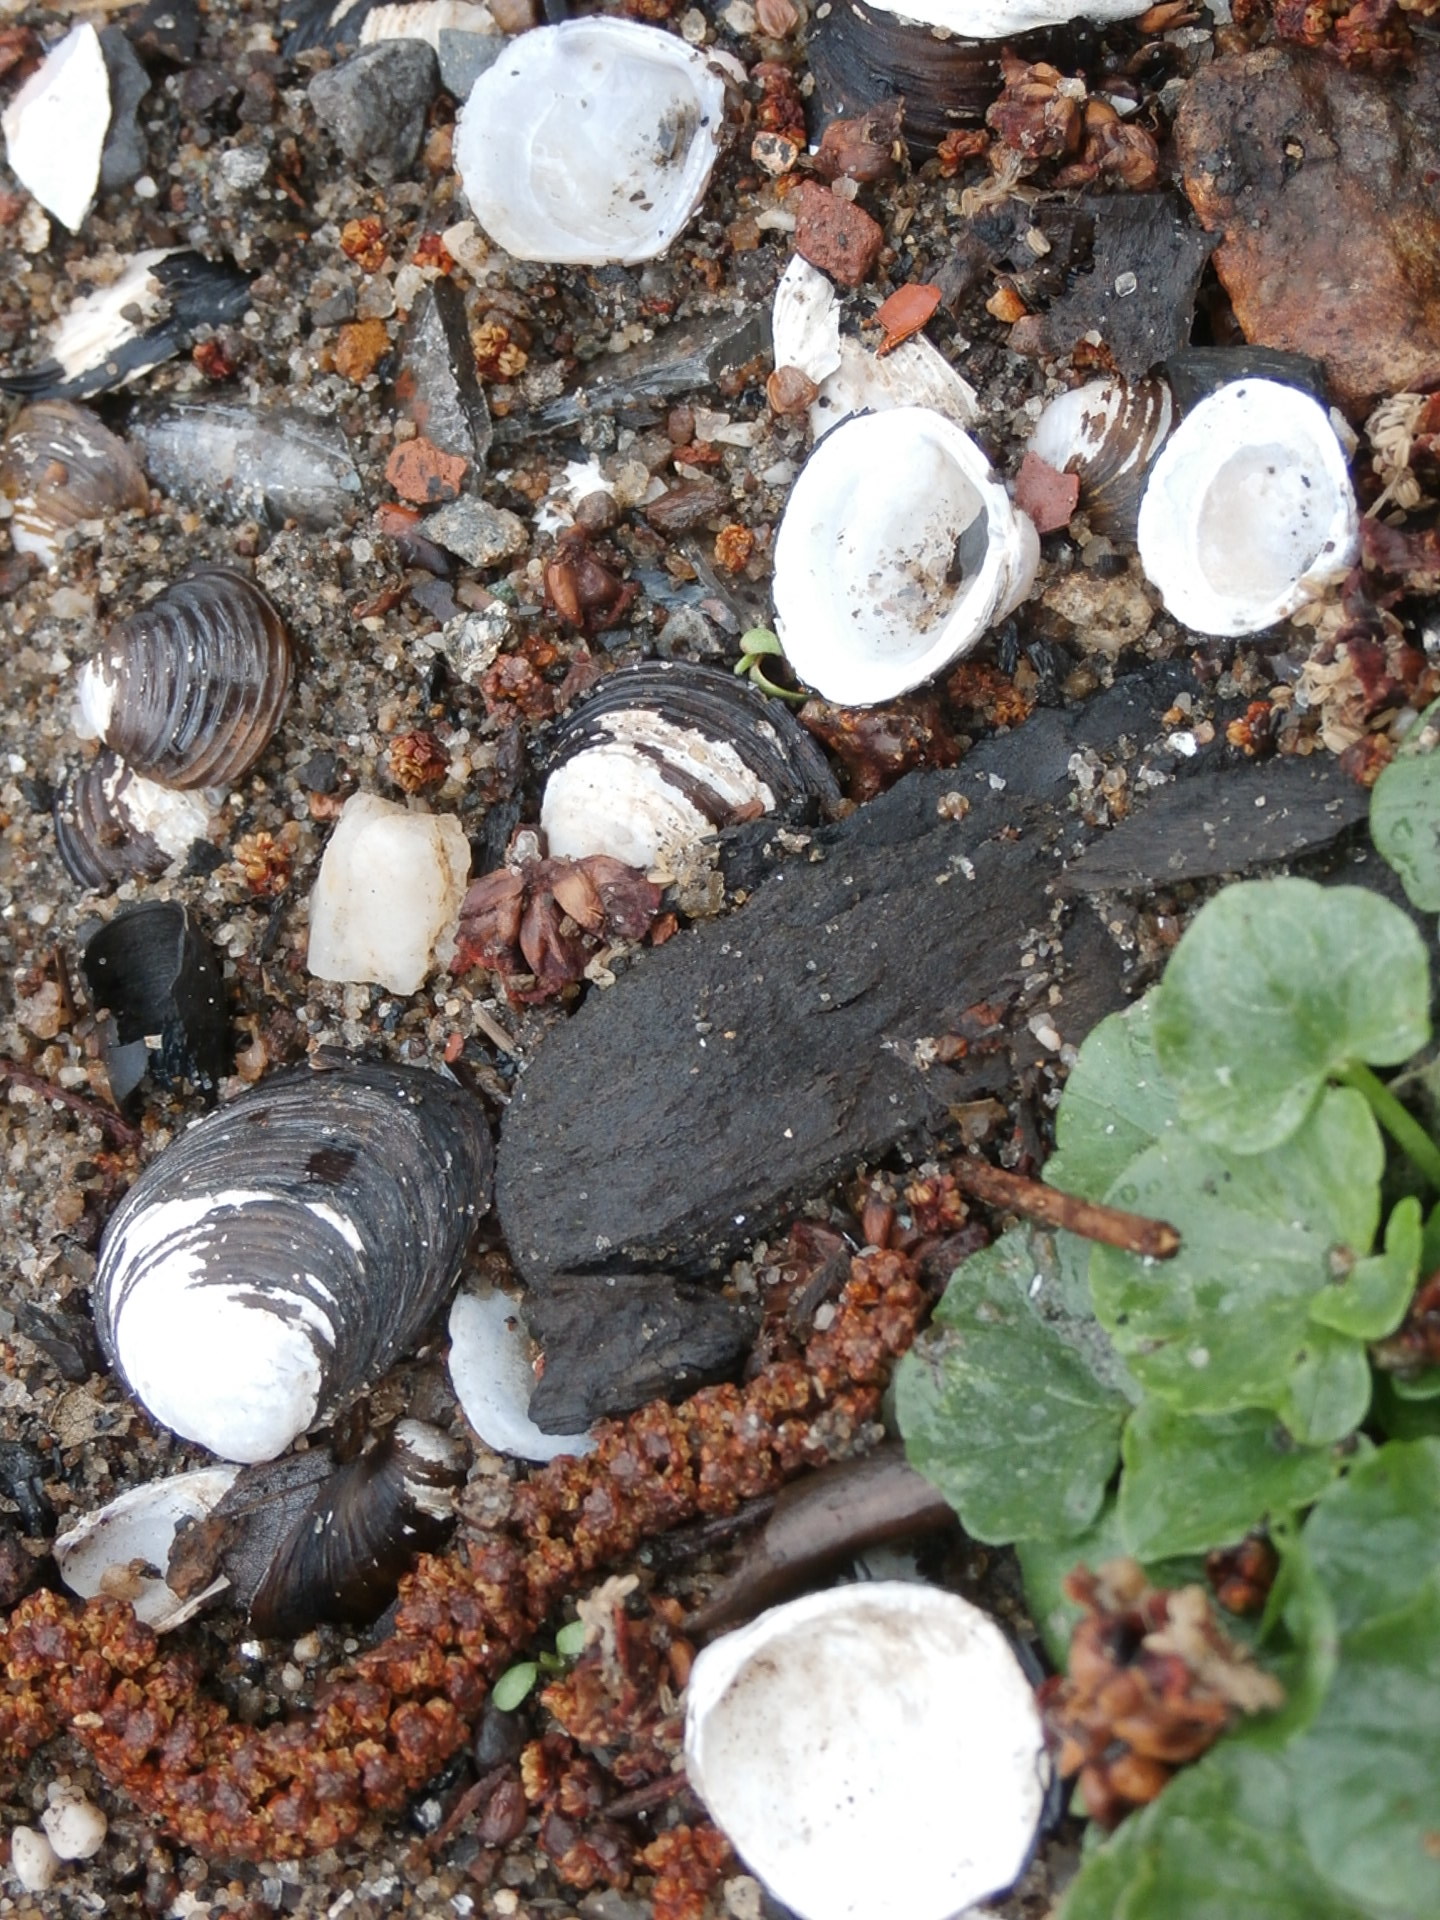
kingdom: Animalia
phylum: Mollusca
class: Bivalvia
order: Venerida
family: Cyrenidae
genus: Corbicula
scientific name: Corbicula fluminea
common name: Asian clam
